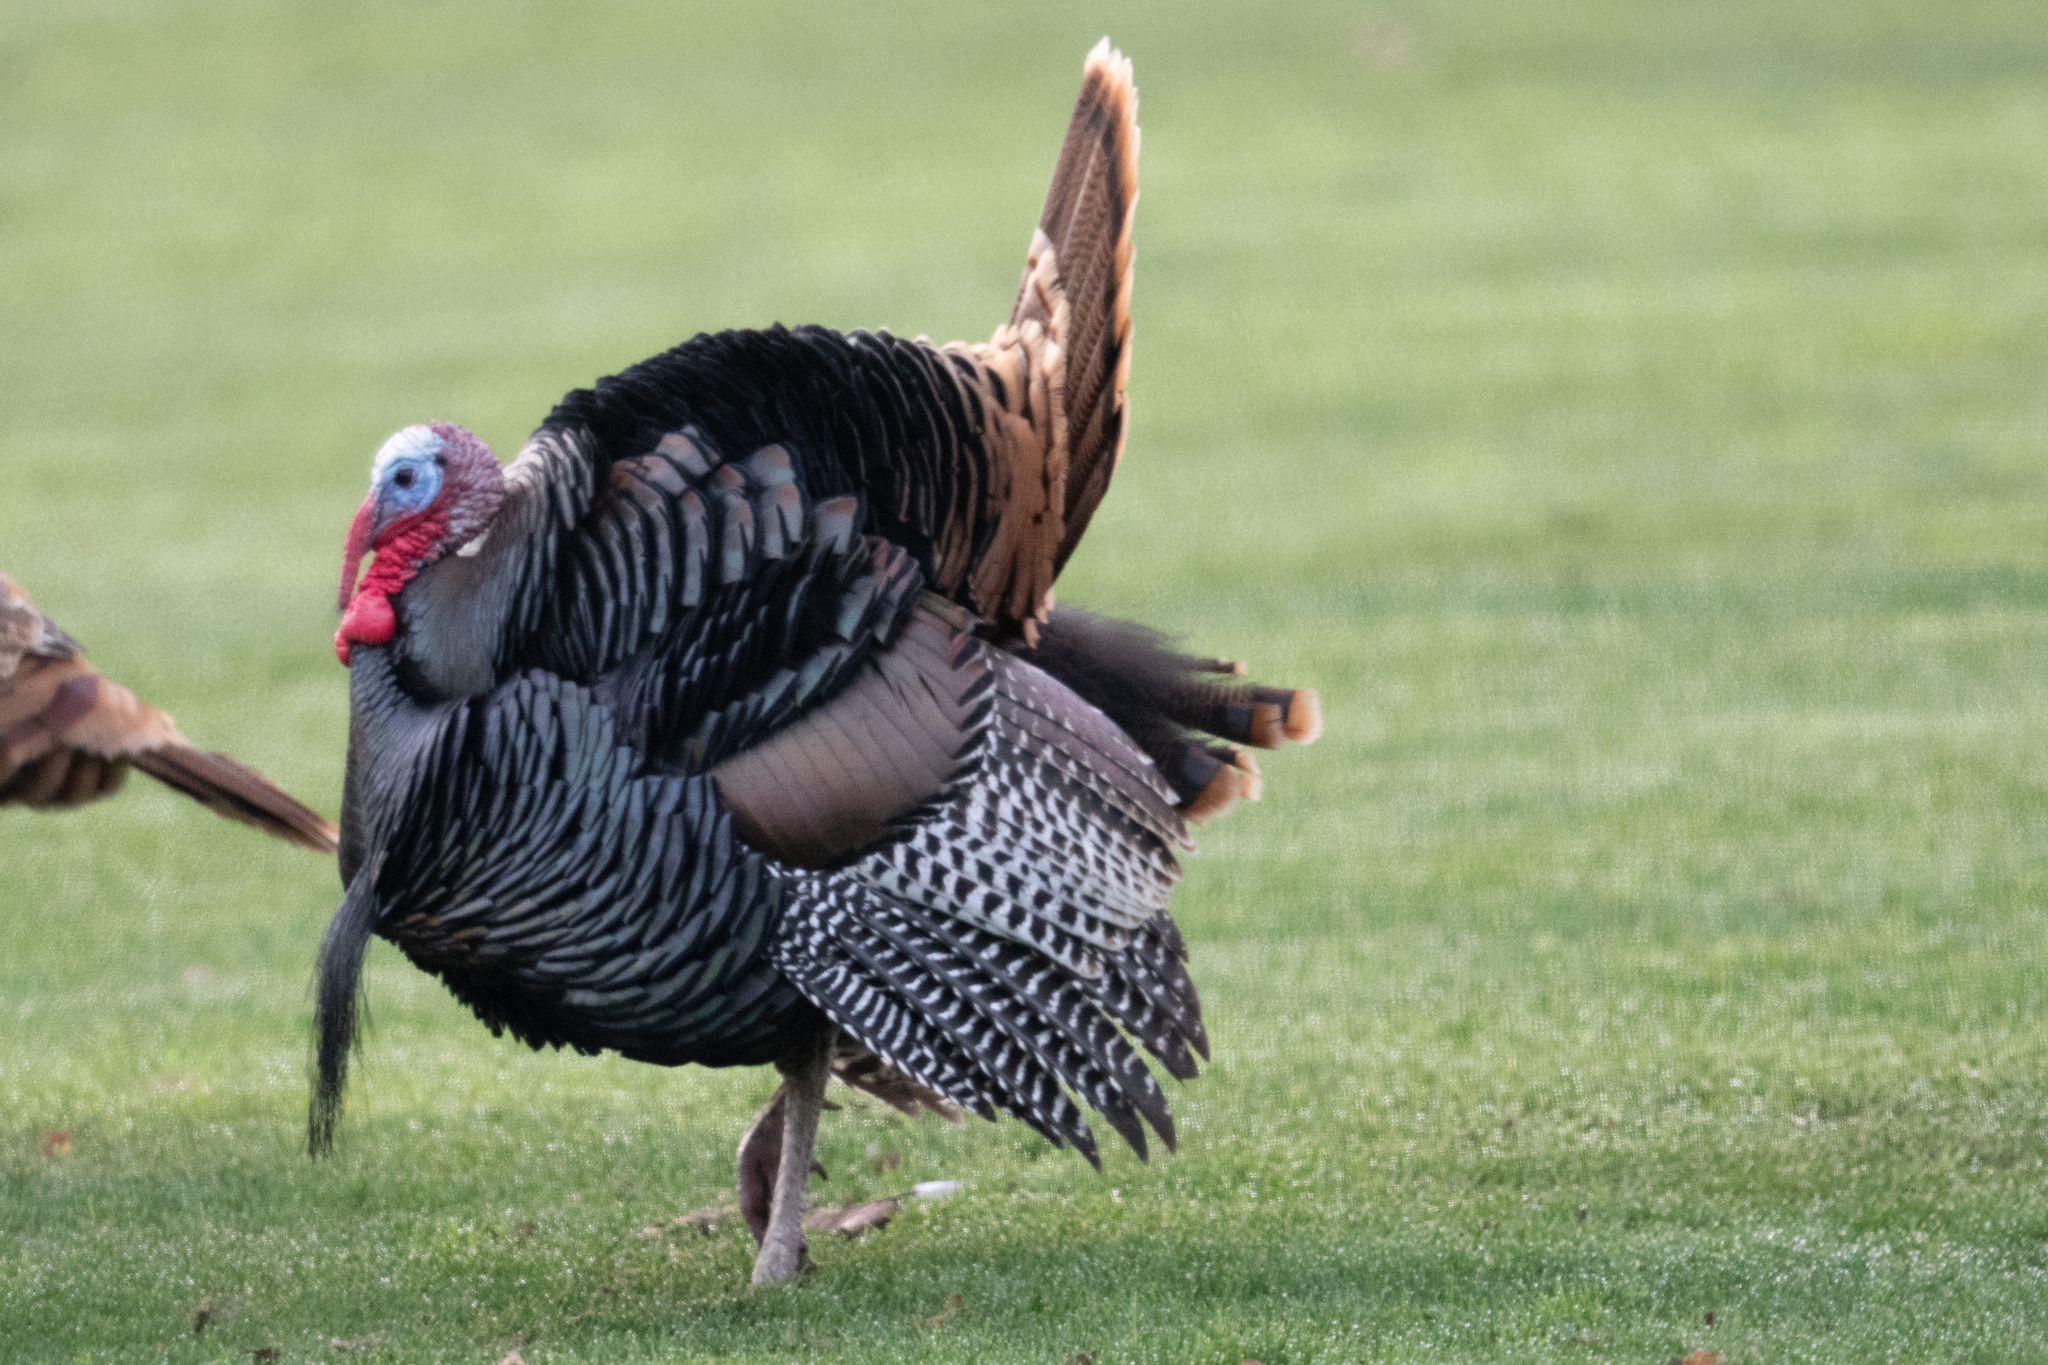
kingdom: Animalia
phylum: Chordata
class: Aves
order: Galliformes
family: Phasianidae
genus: Meleagris
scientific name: Meleagris gallopavo
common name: Wild turkey
